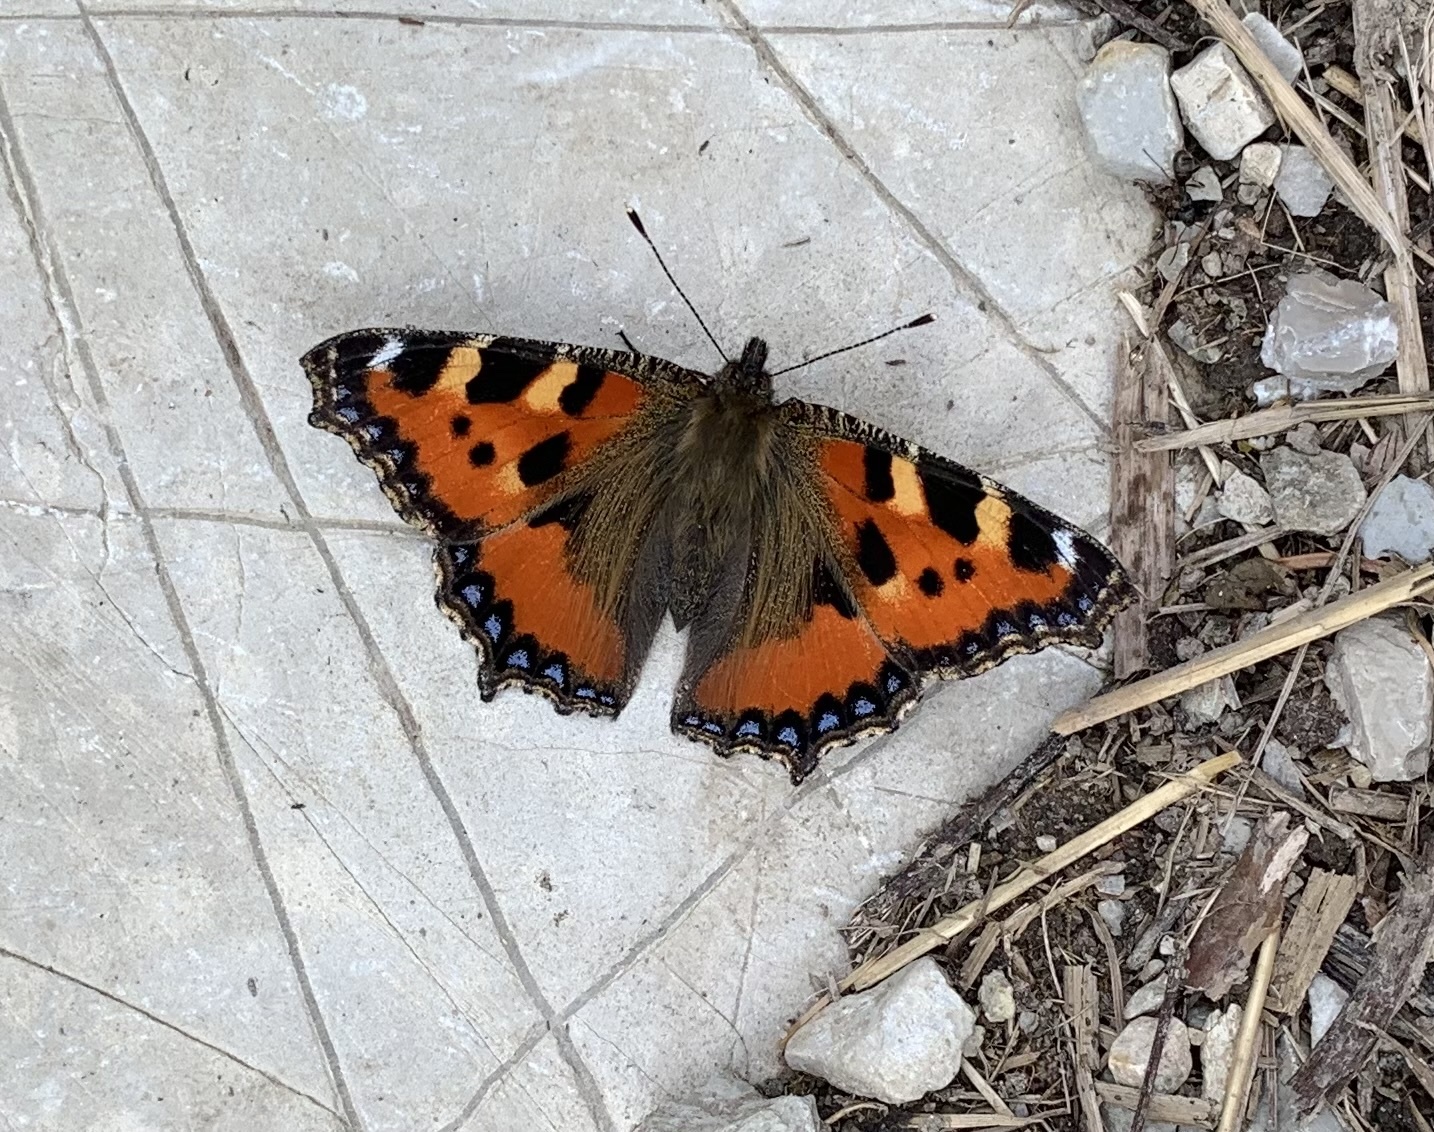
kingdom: Animalia
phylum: Arthropoda
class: Insecta
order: Lepidoptera
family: Nymphalidae
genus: Aglais
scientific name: Aglais urticae
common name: Small tortoiseshell
